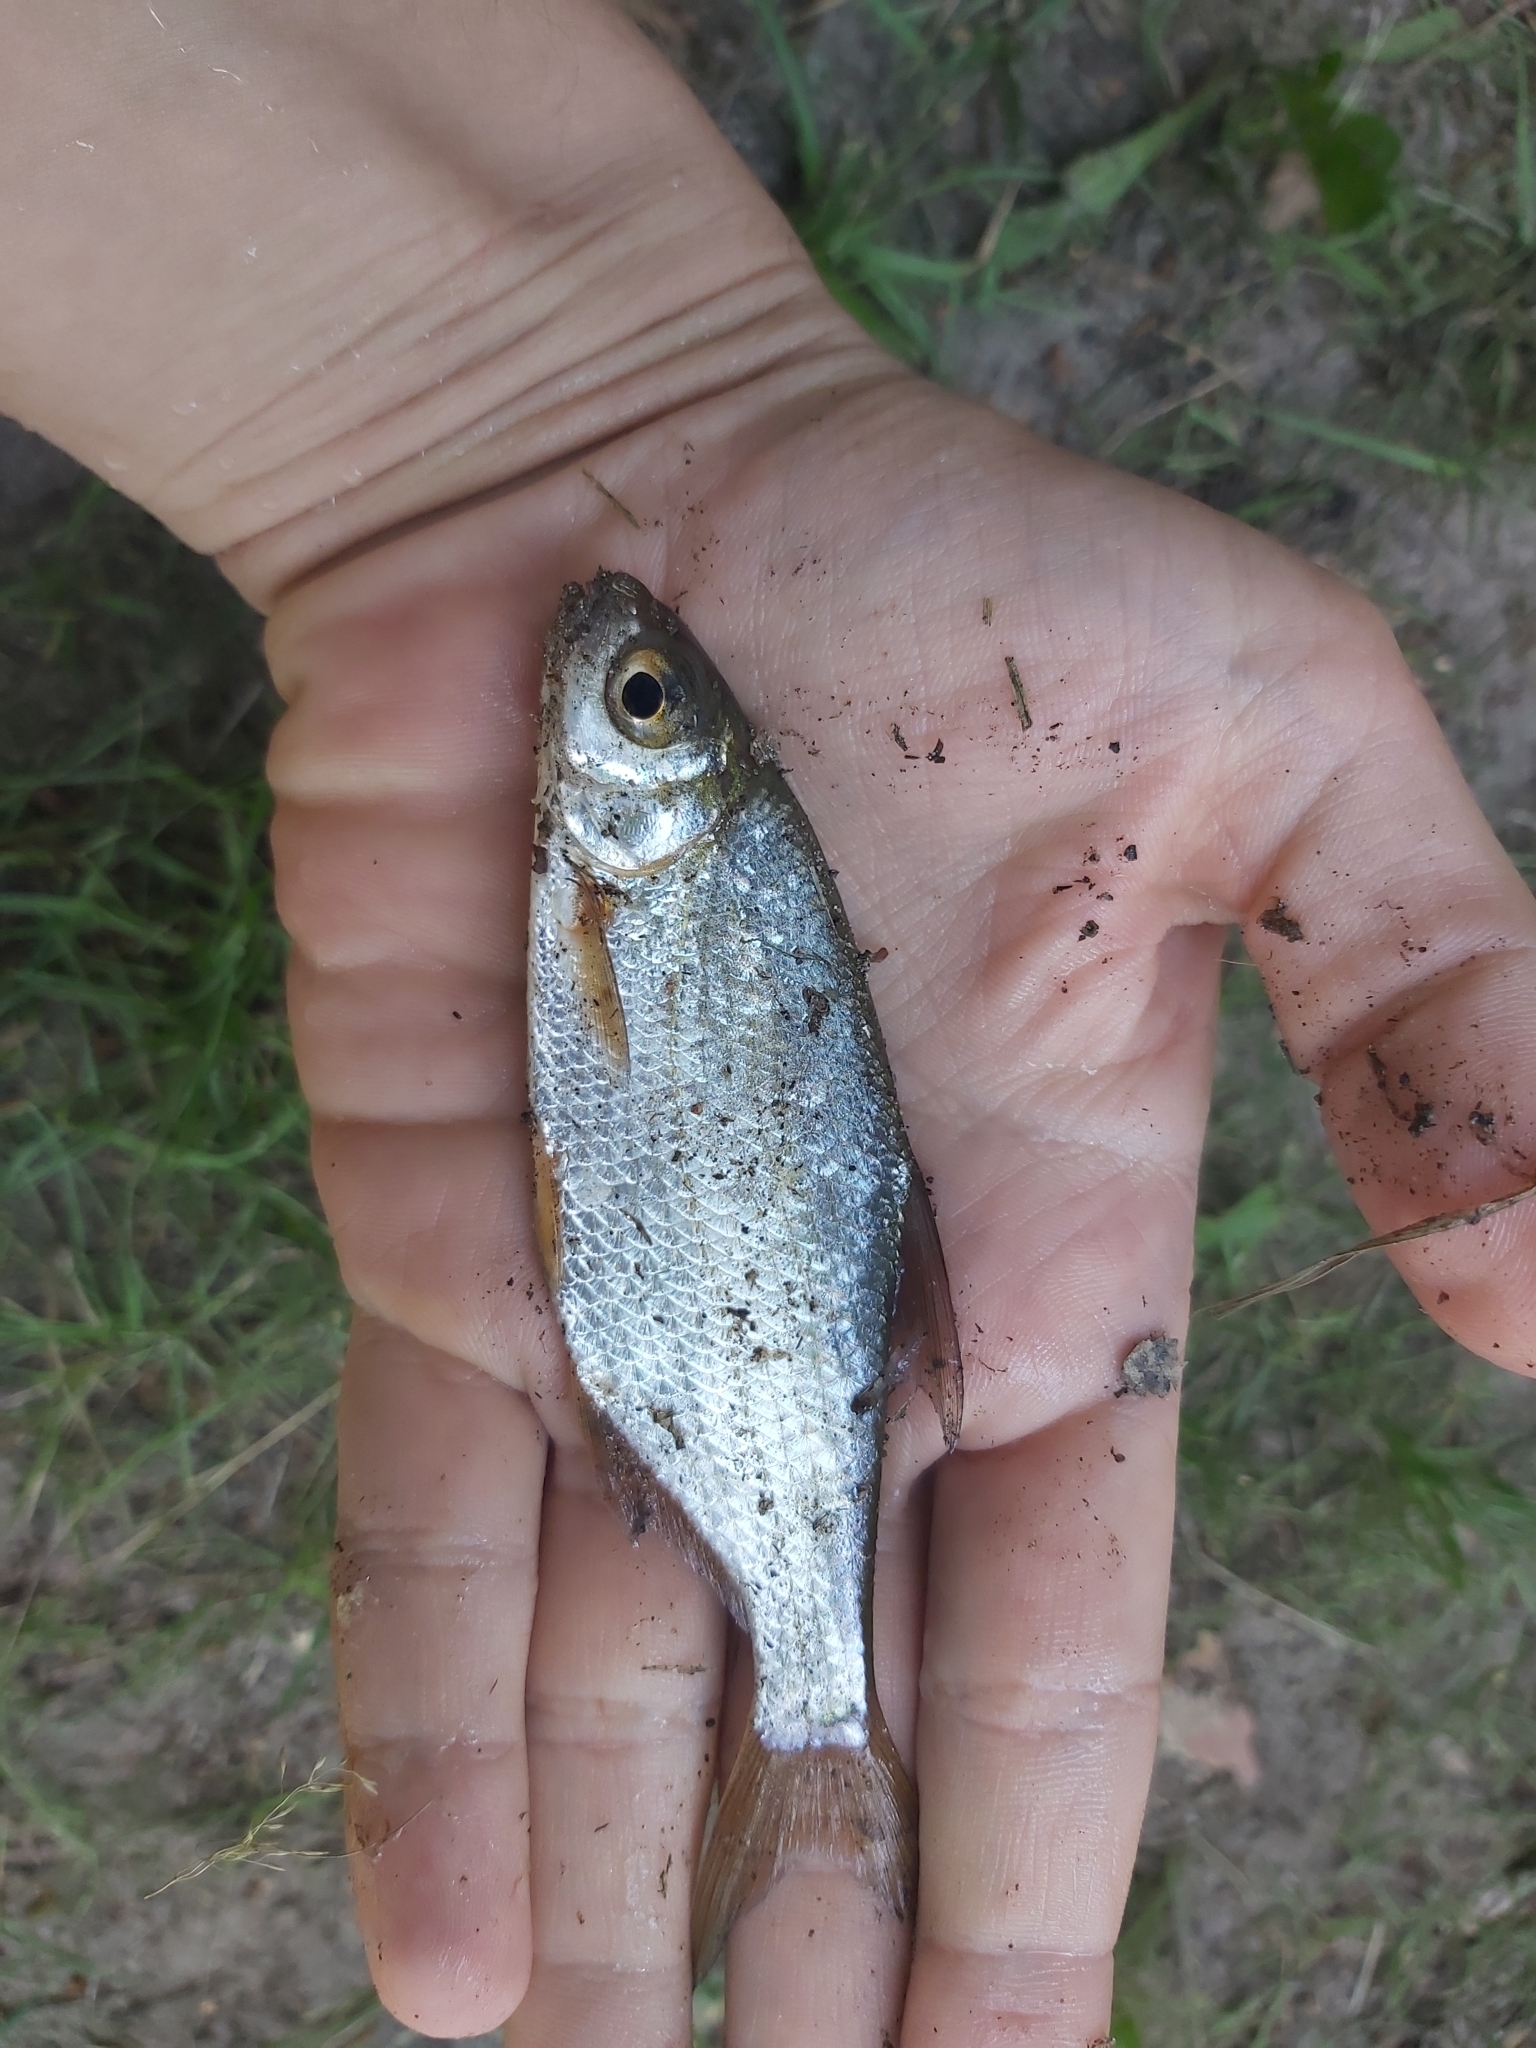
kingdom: Animalia
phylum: Chordata
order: Cypriniformes
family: Cyprinidae
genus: Blicca
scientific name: Blicca bjoerkna
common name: White bream
